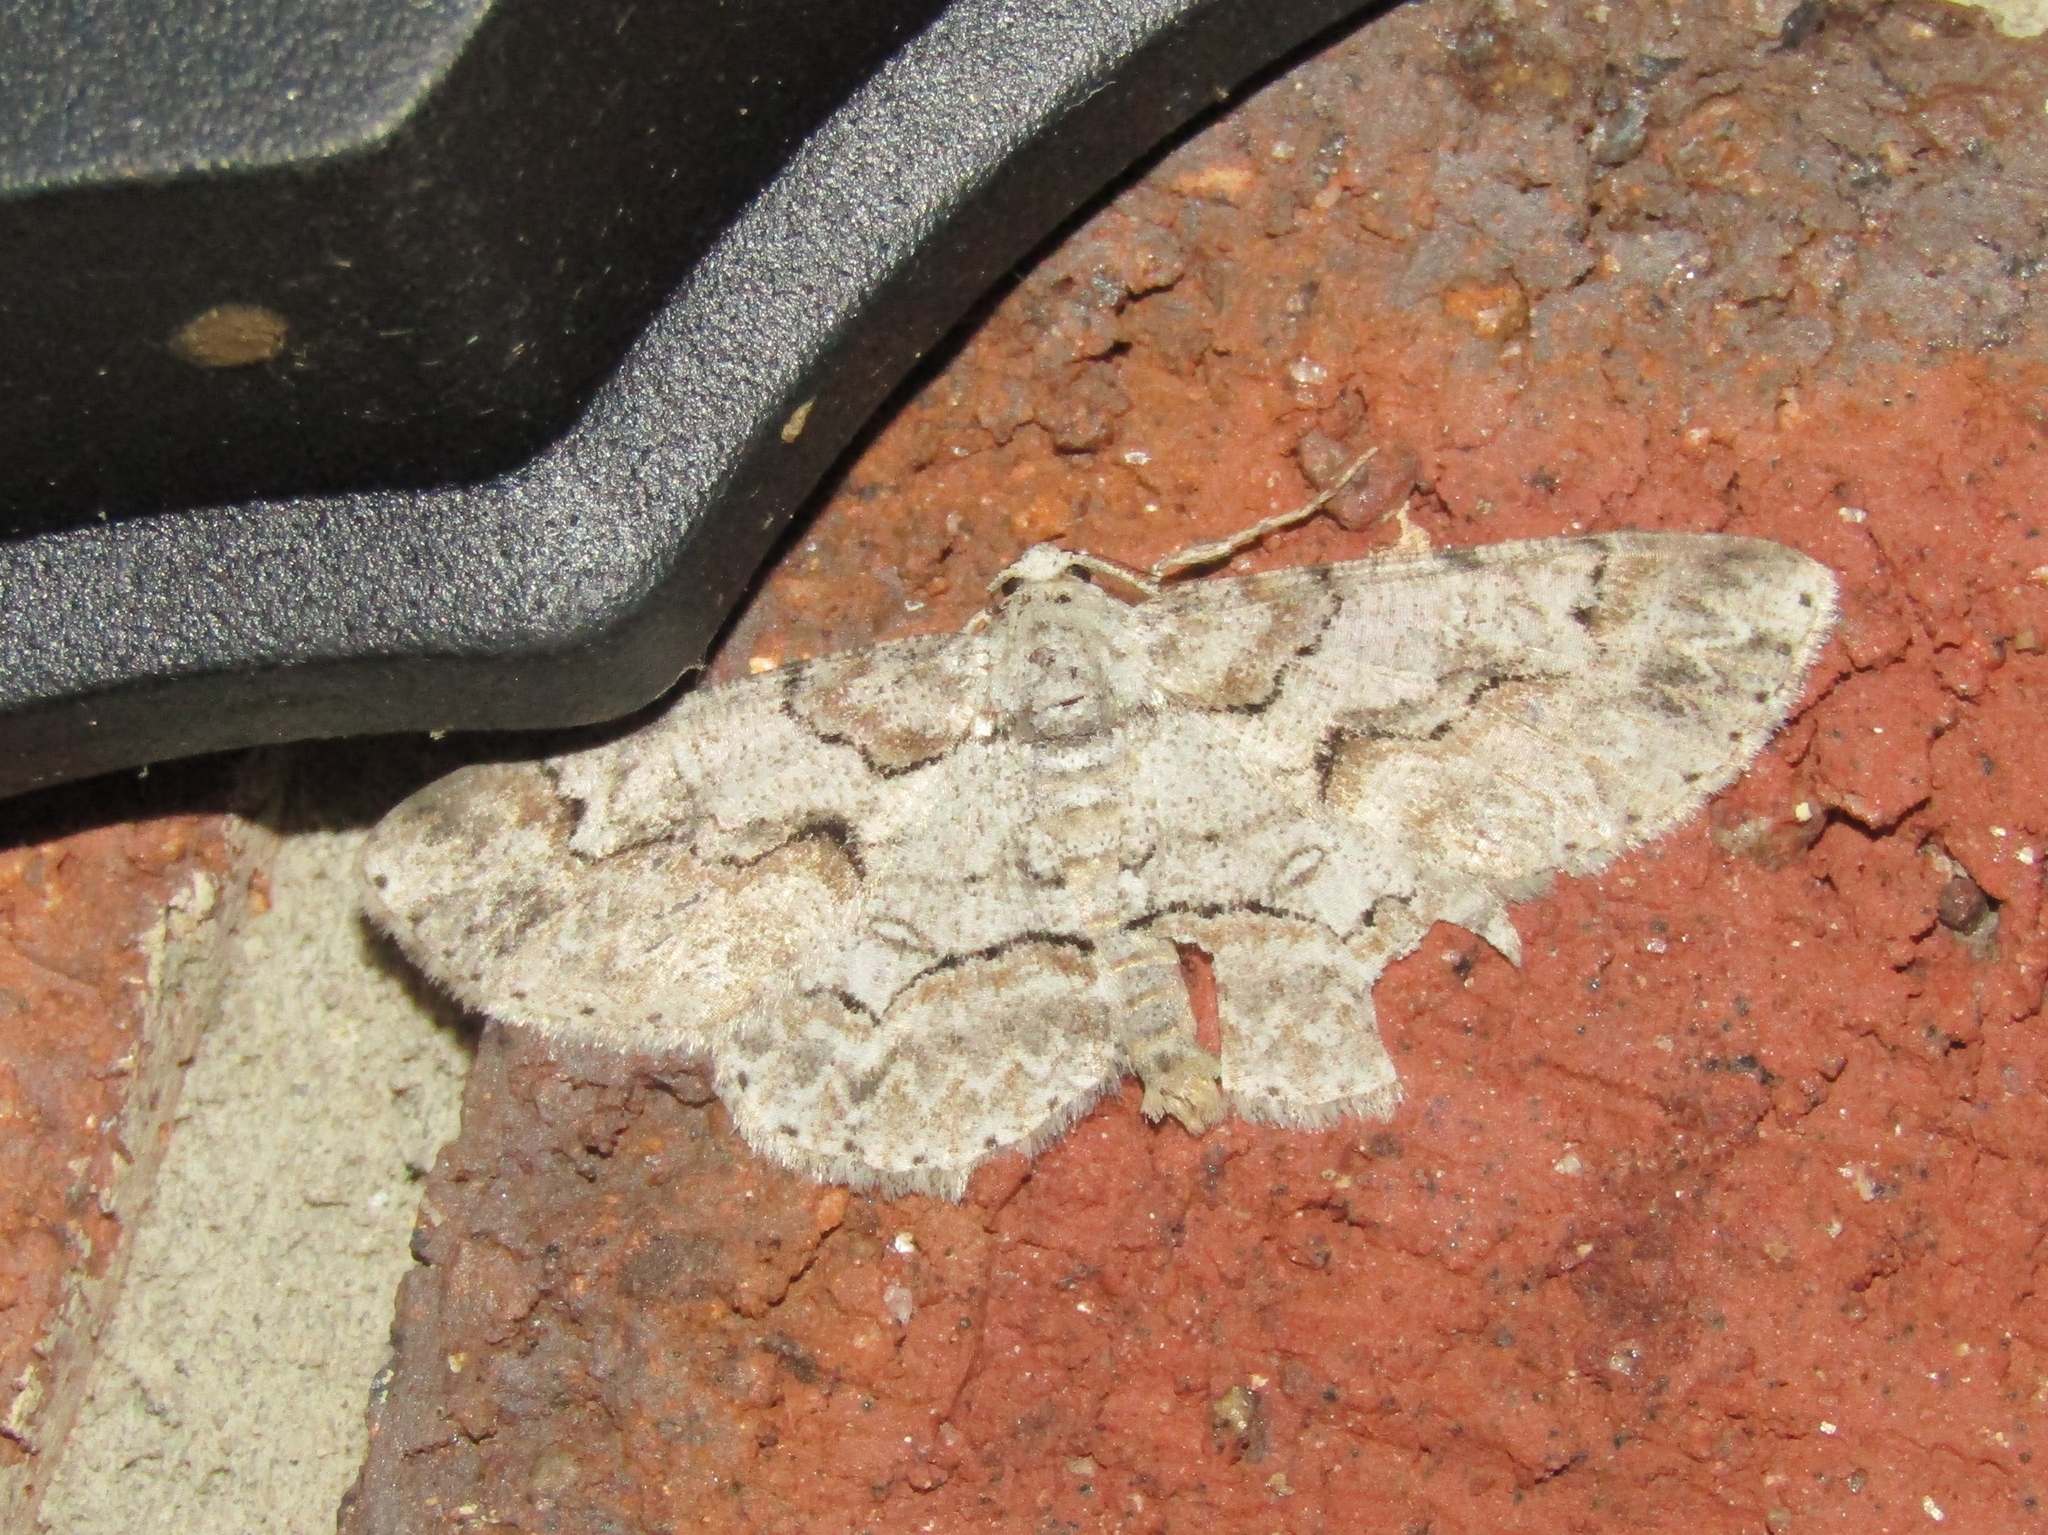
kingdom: Animalia
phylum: Arthropoda
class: Insecta
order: Lepidoptera
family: Geometridae
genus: Iridopsis
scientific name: Iridopsis defectaria
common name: Brown-shaded gray
